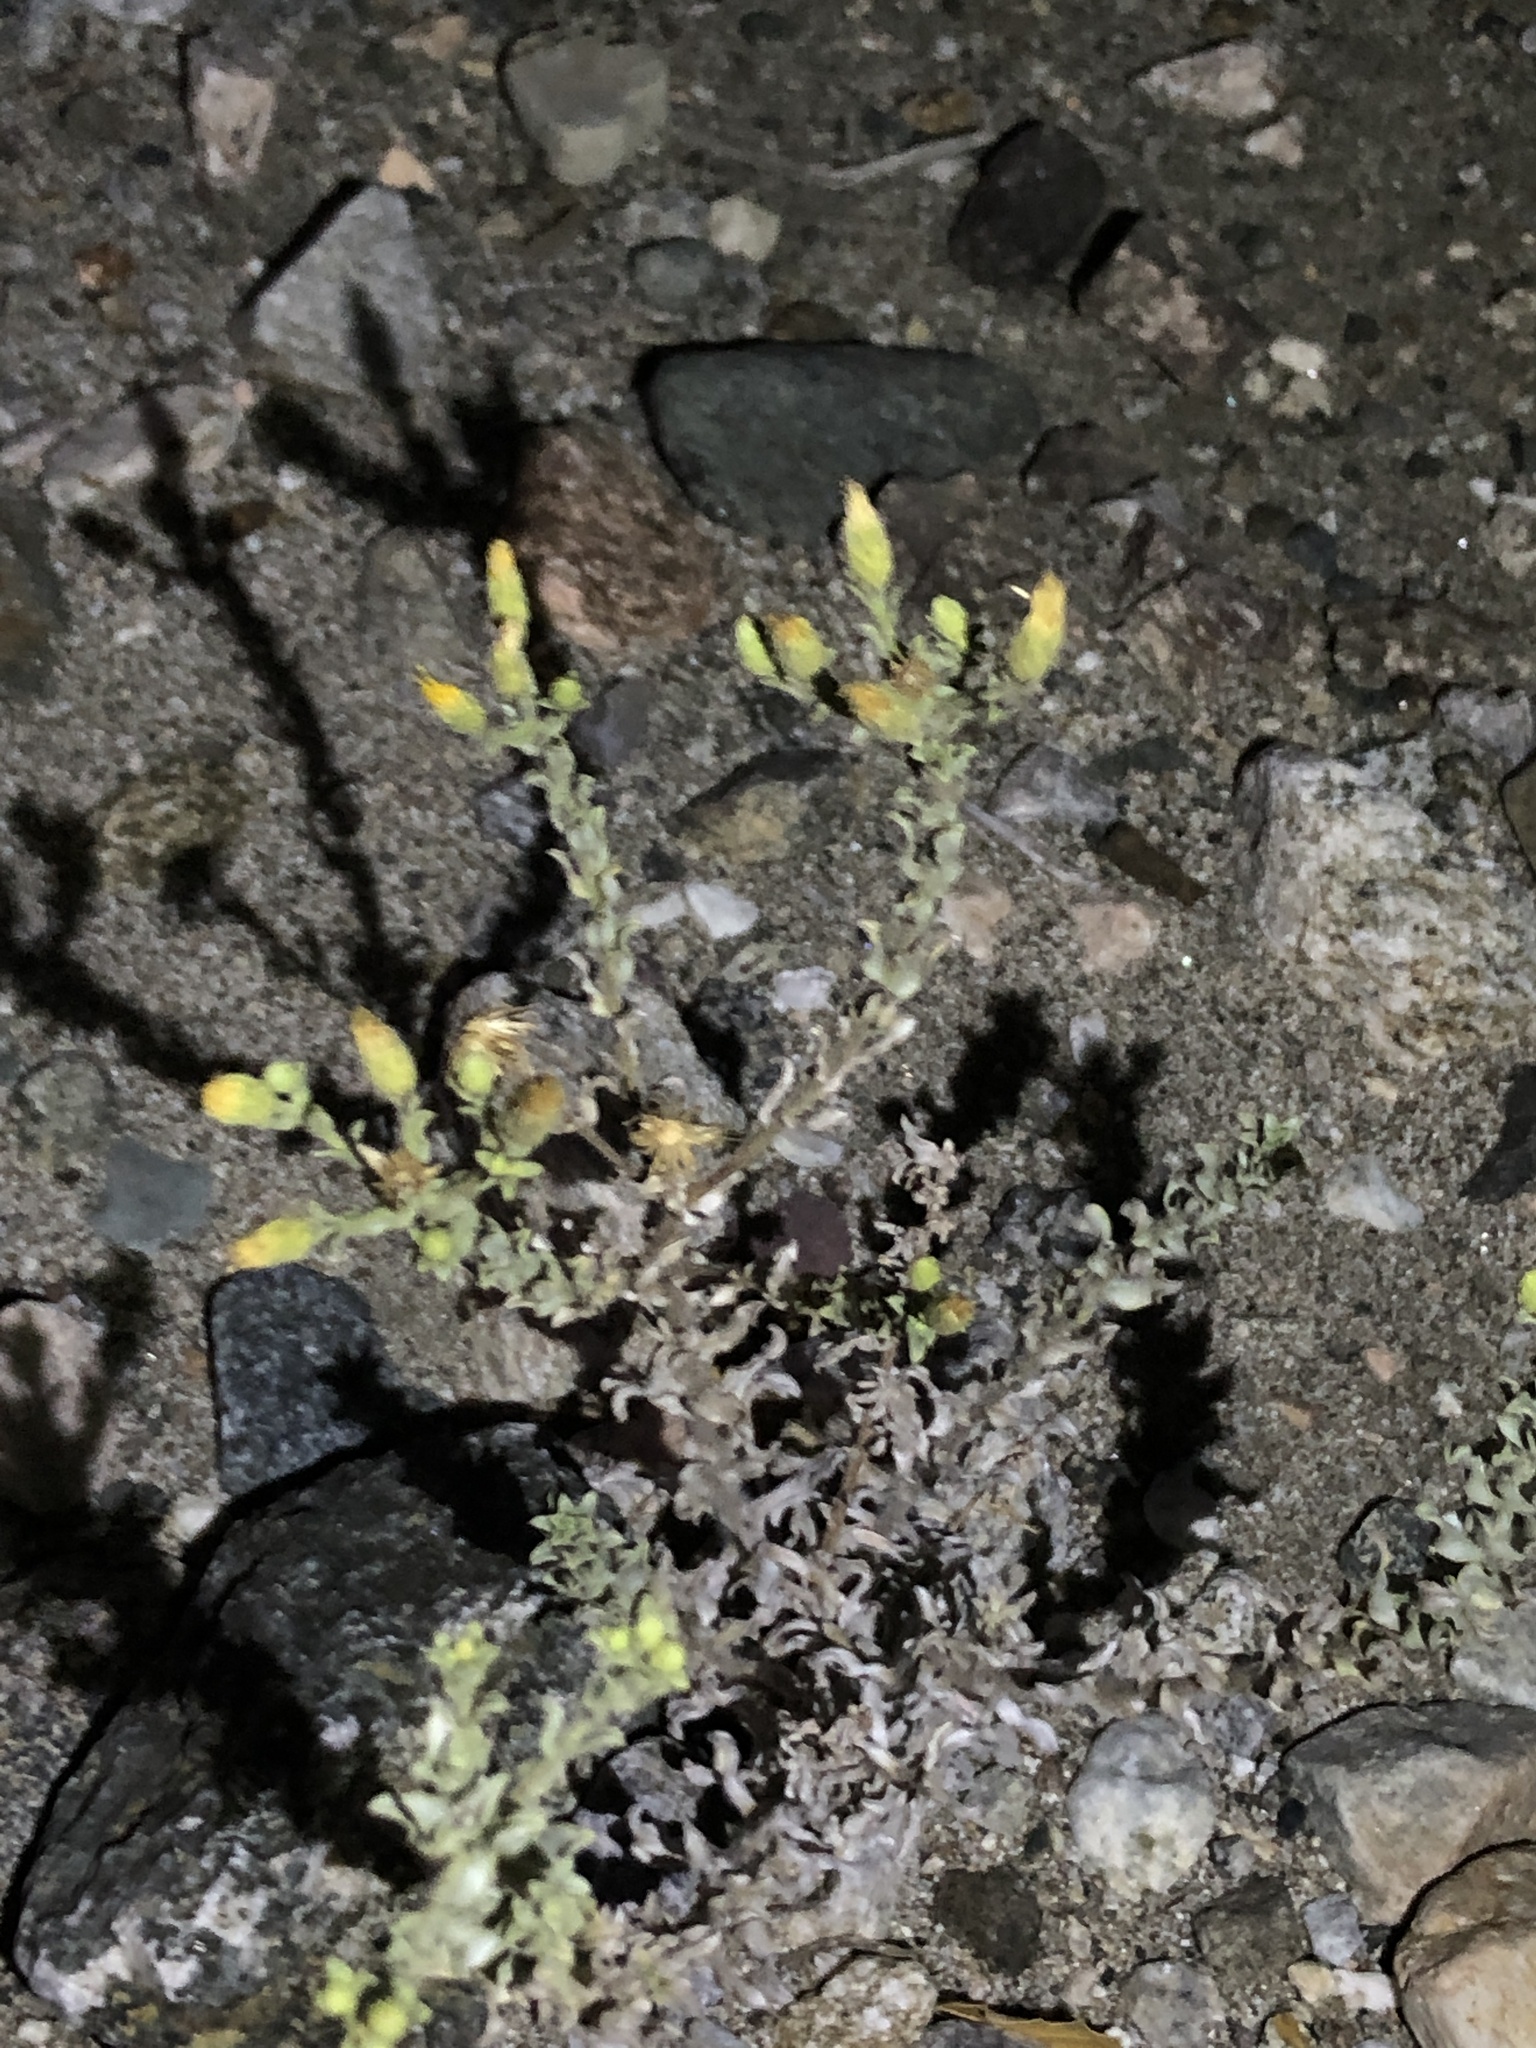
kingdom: Plantae
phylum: Tracheophyta
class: Magnoliopsida
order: Asterales
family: Asteraceae
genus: Heterotheca
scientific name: Heterotheca sessiliflora
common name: Sessile-flower golden-aster
